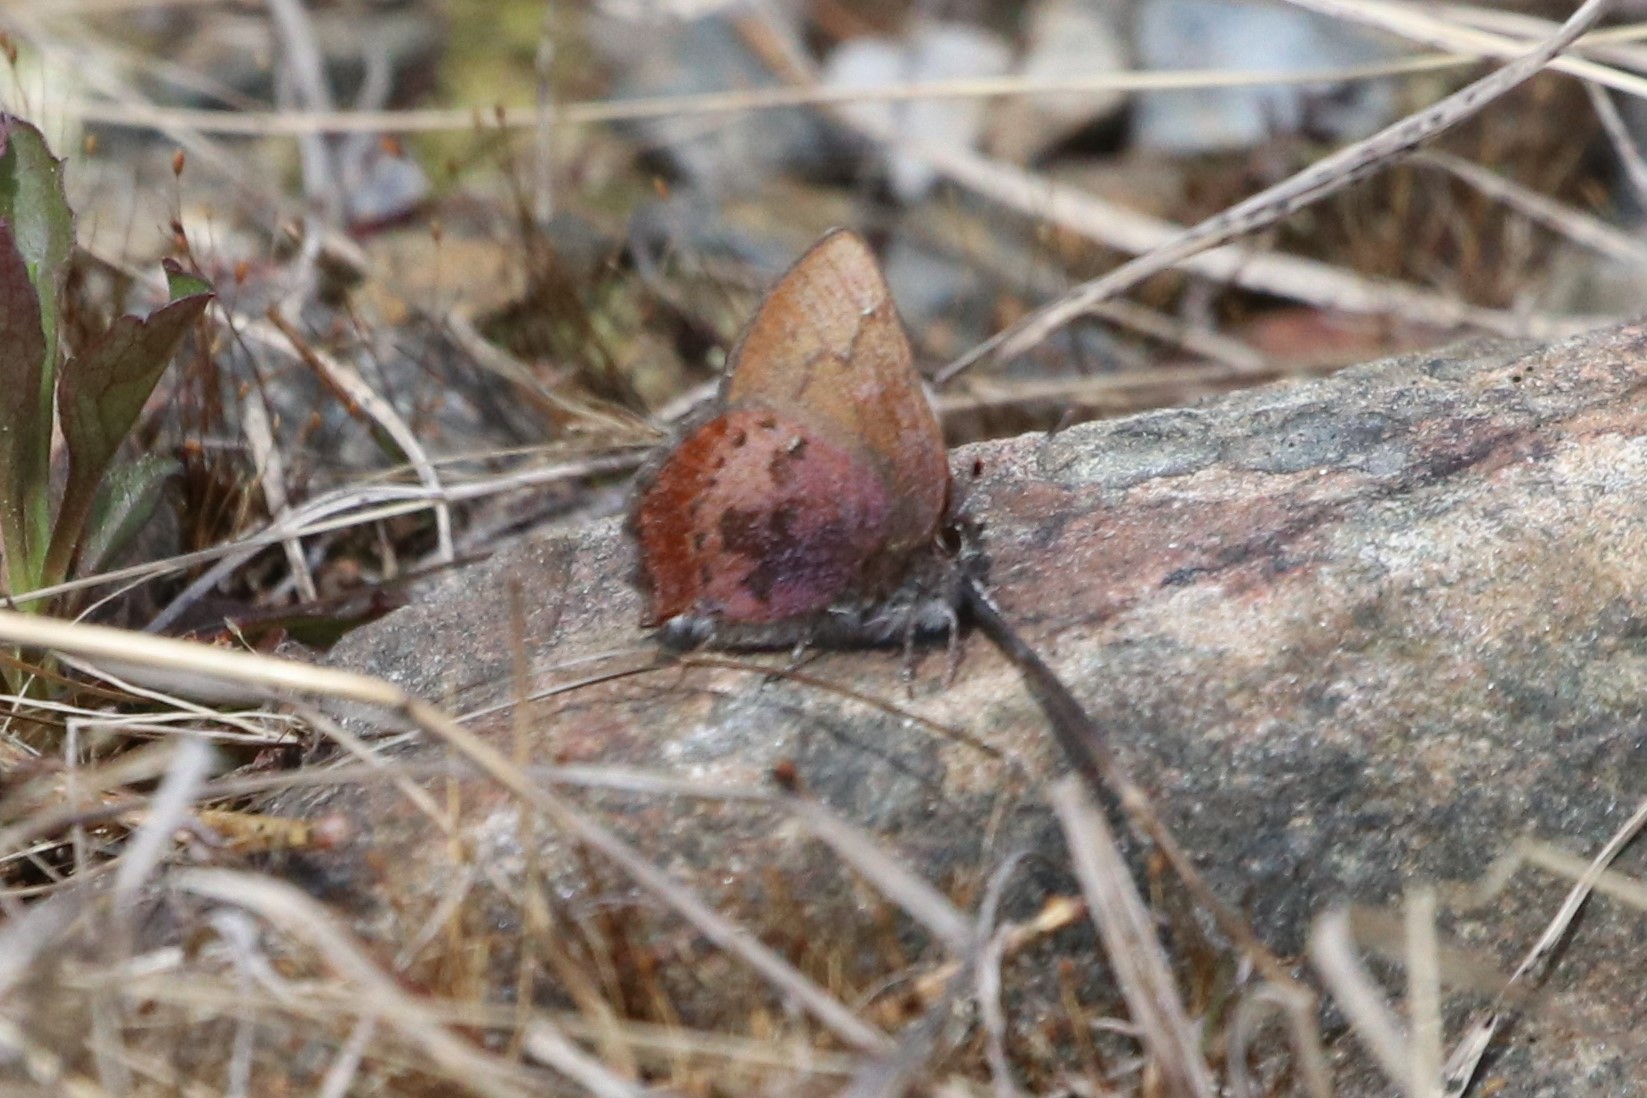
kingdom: Animalia
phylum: Arthropoda
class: Insecta
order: Lepidoptera
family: Lycaenidae
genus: Incisalia
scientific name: Incisalia irioides
